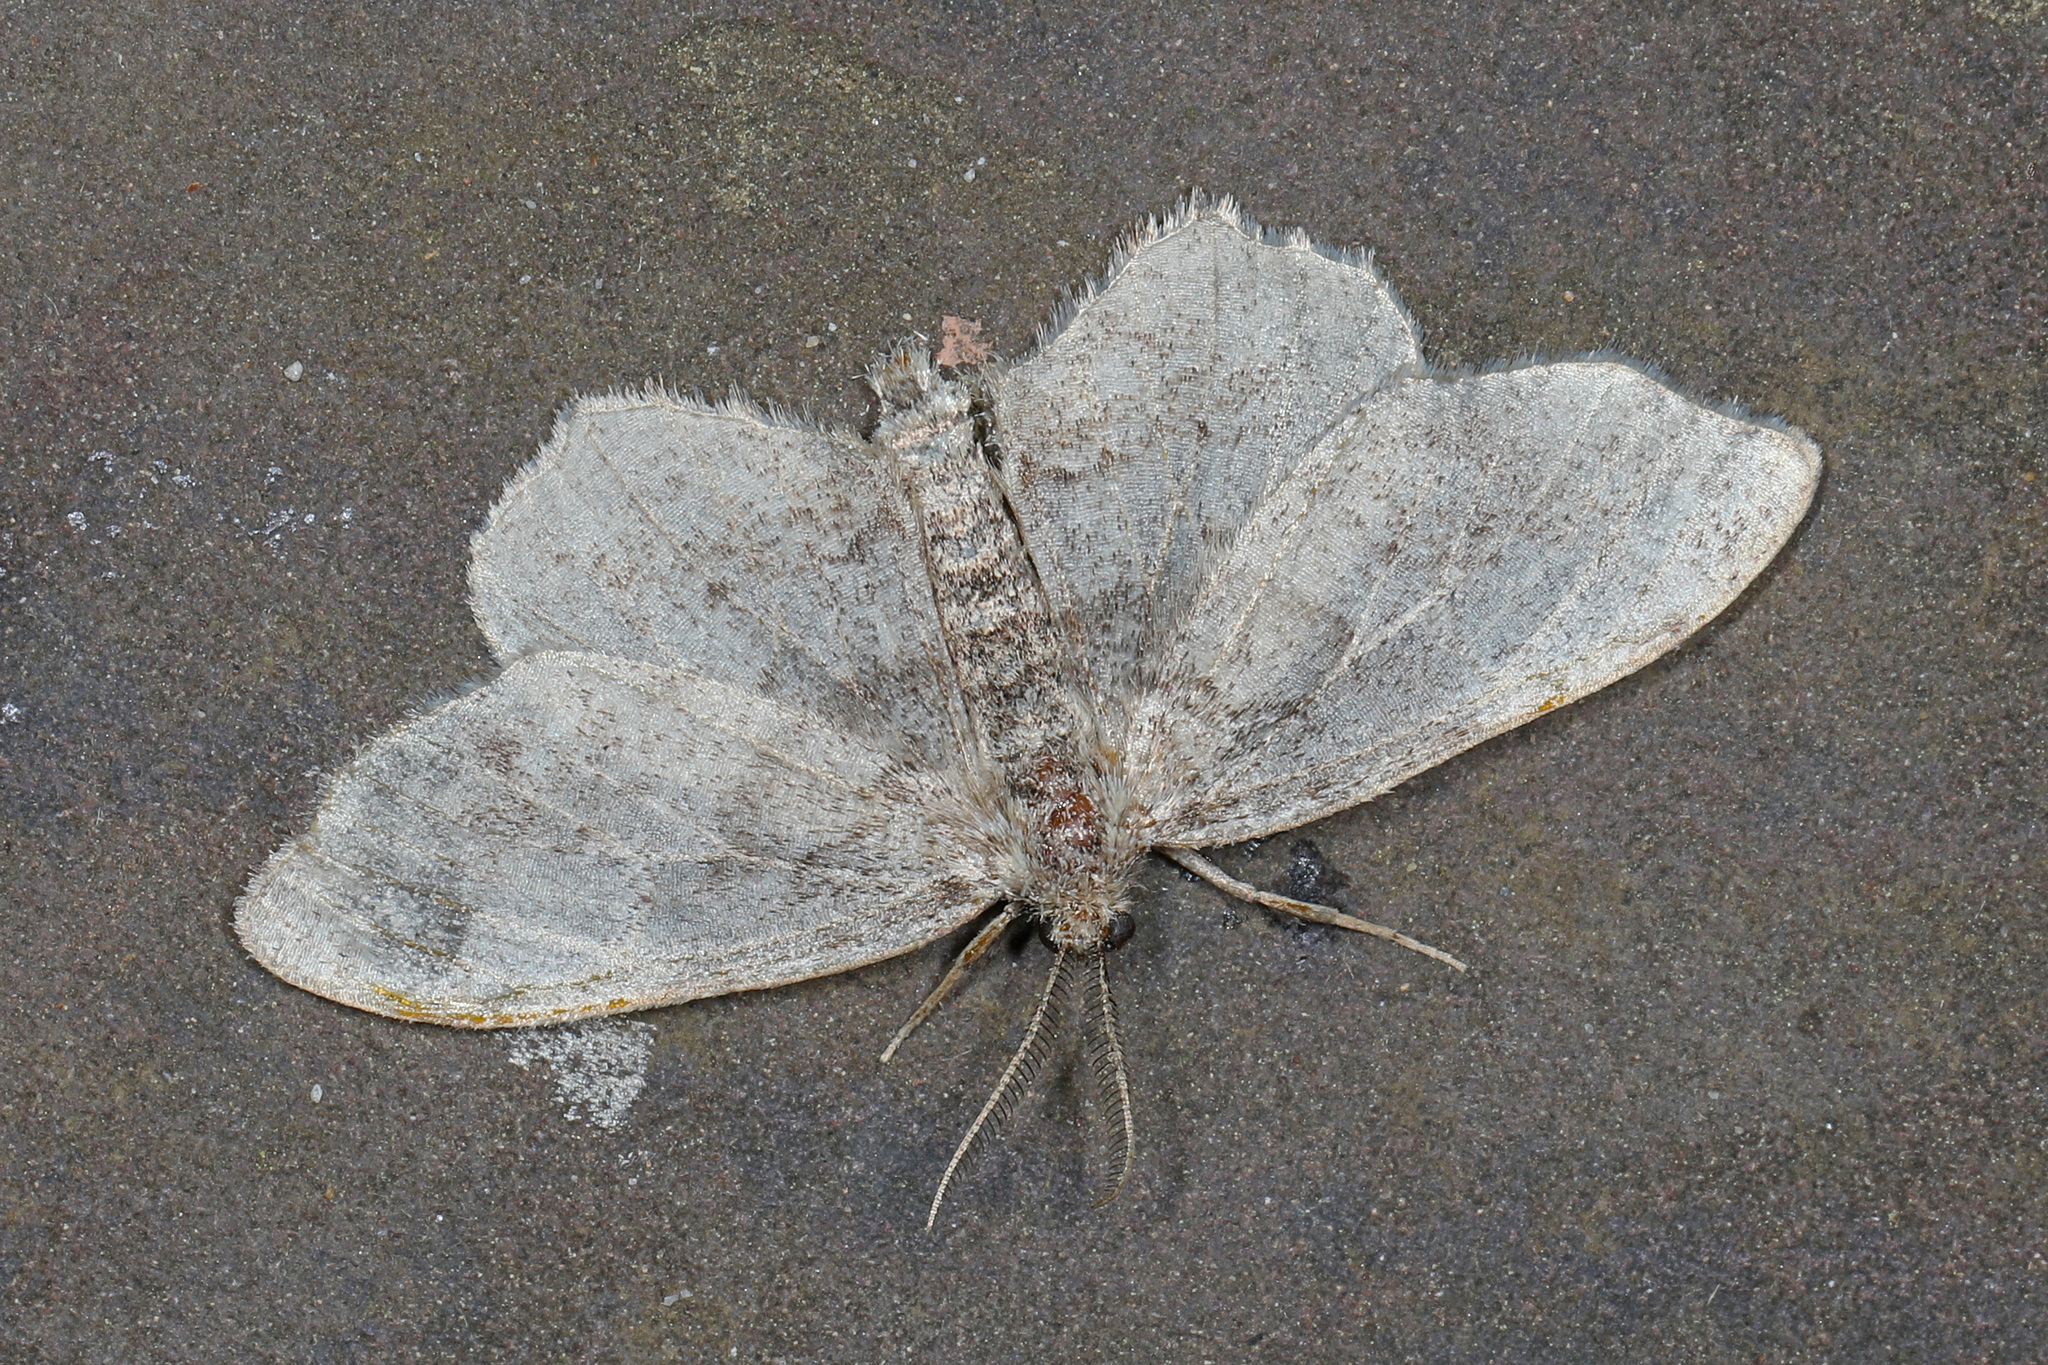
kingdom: Animalia
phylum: Arthropoda
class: Insecta
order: Lepidoptera
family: Geometridae
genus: Hypagyrtis
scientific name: Hypagyrtis unipunctata
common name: One-spotted variant
